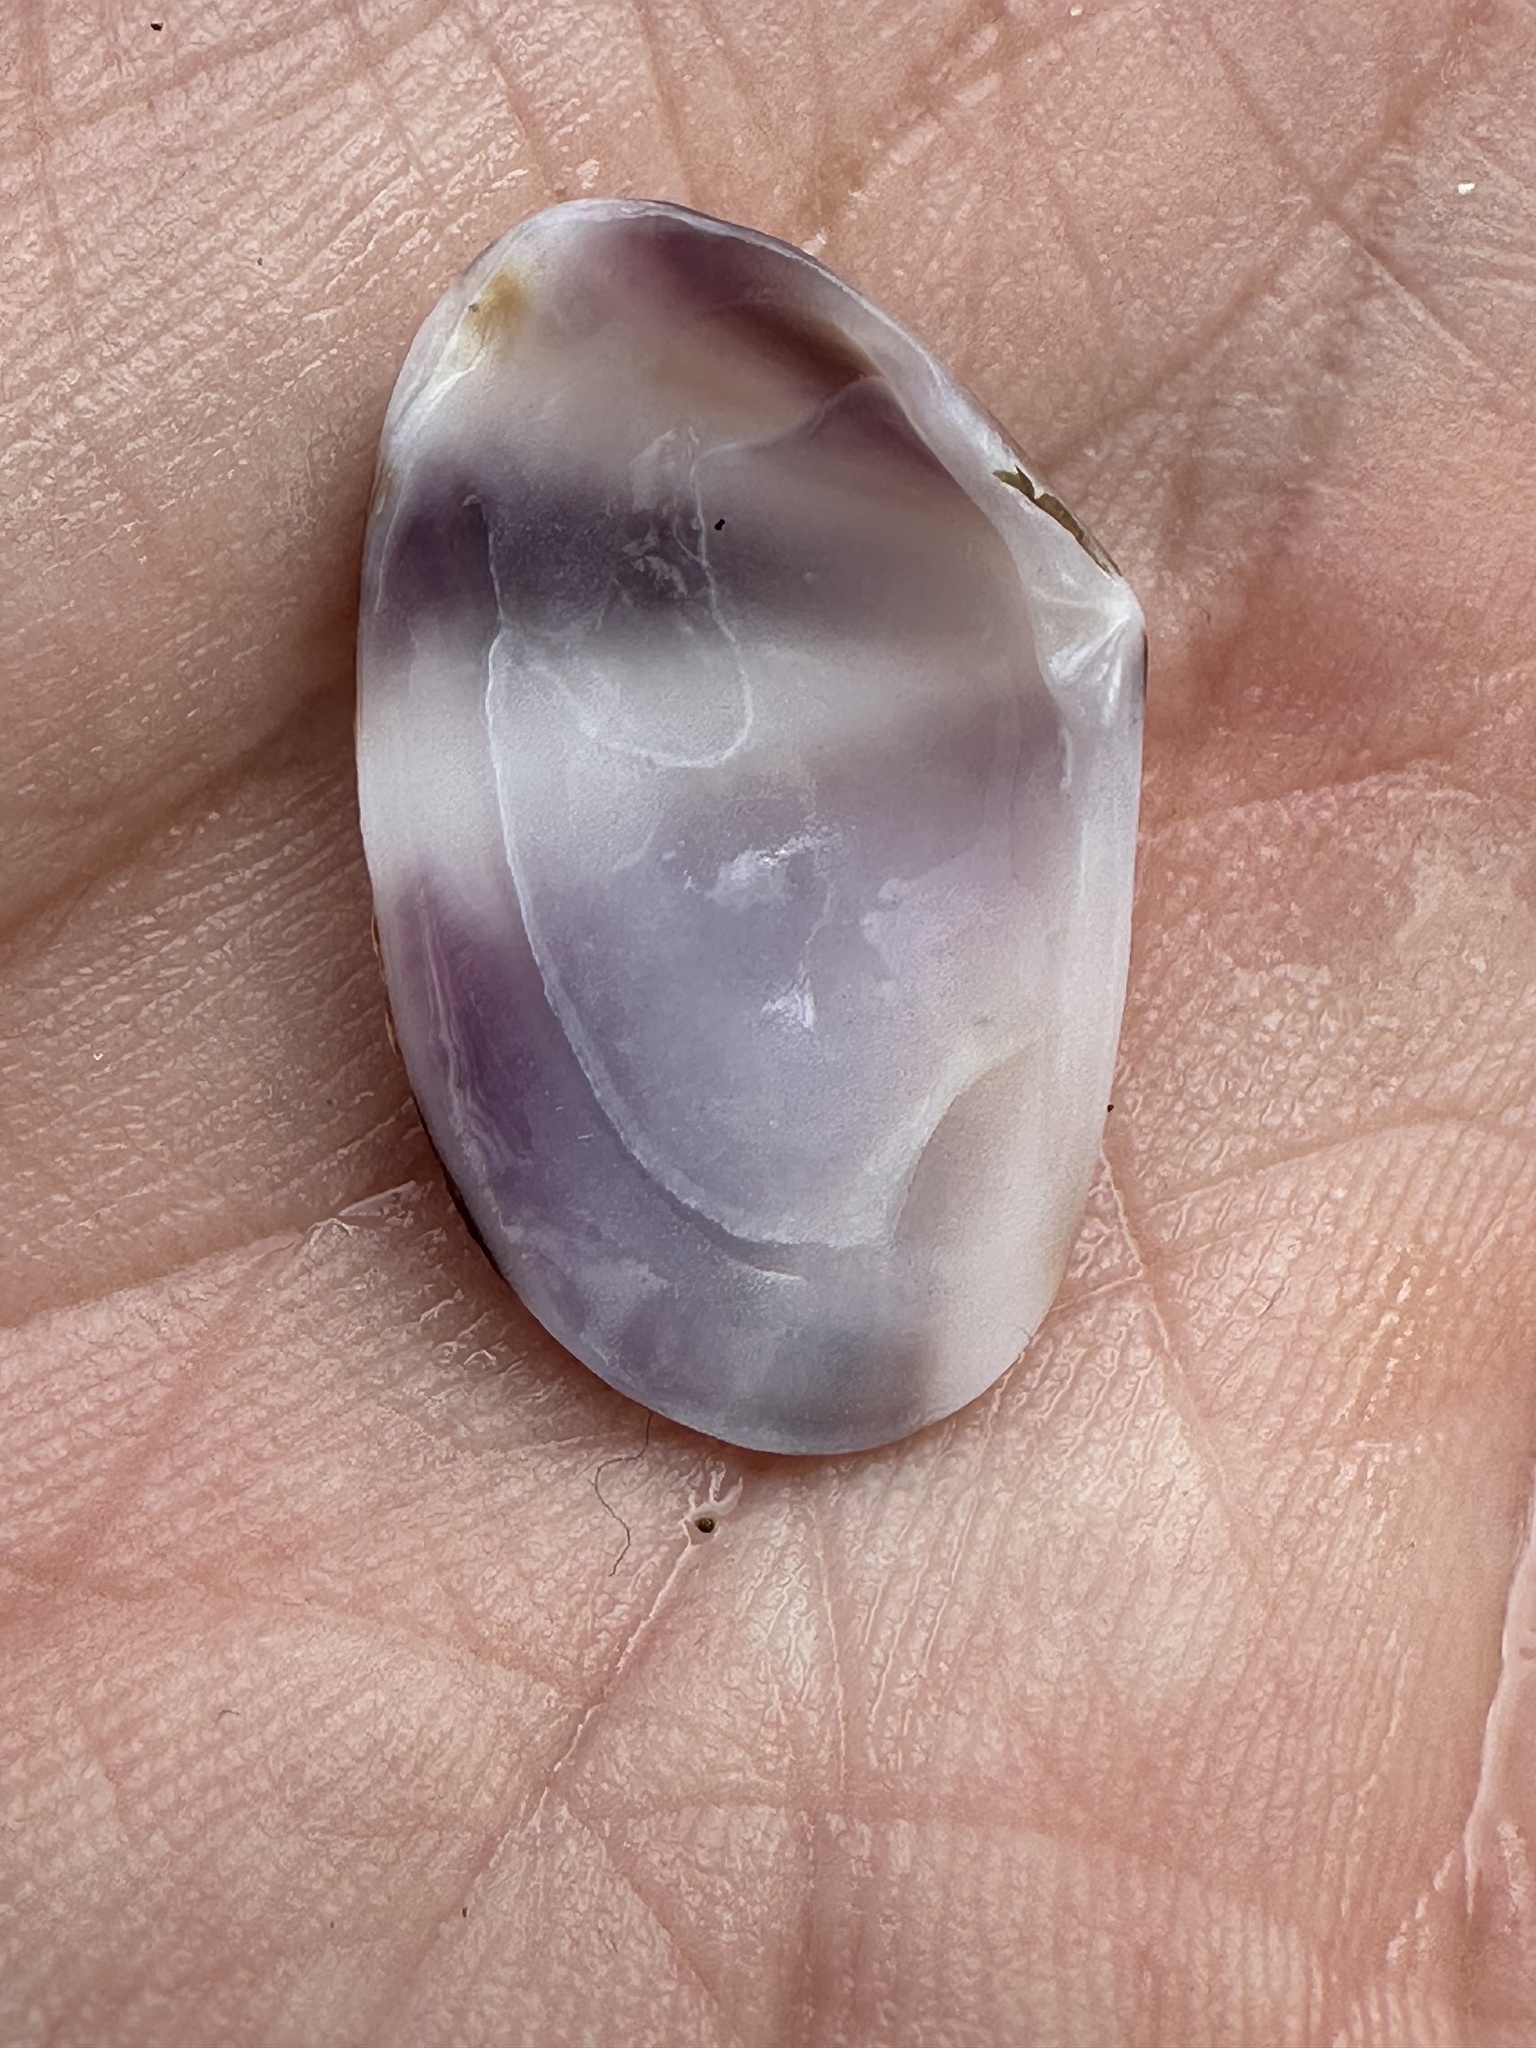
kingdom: Animalia
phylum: Mollusca
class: Bivalvia
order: Cardiida
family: Donacidae
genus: Donax
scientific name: Donax faba
